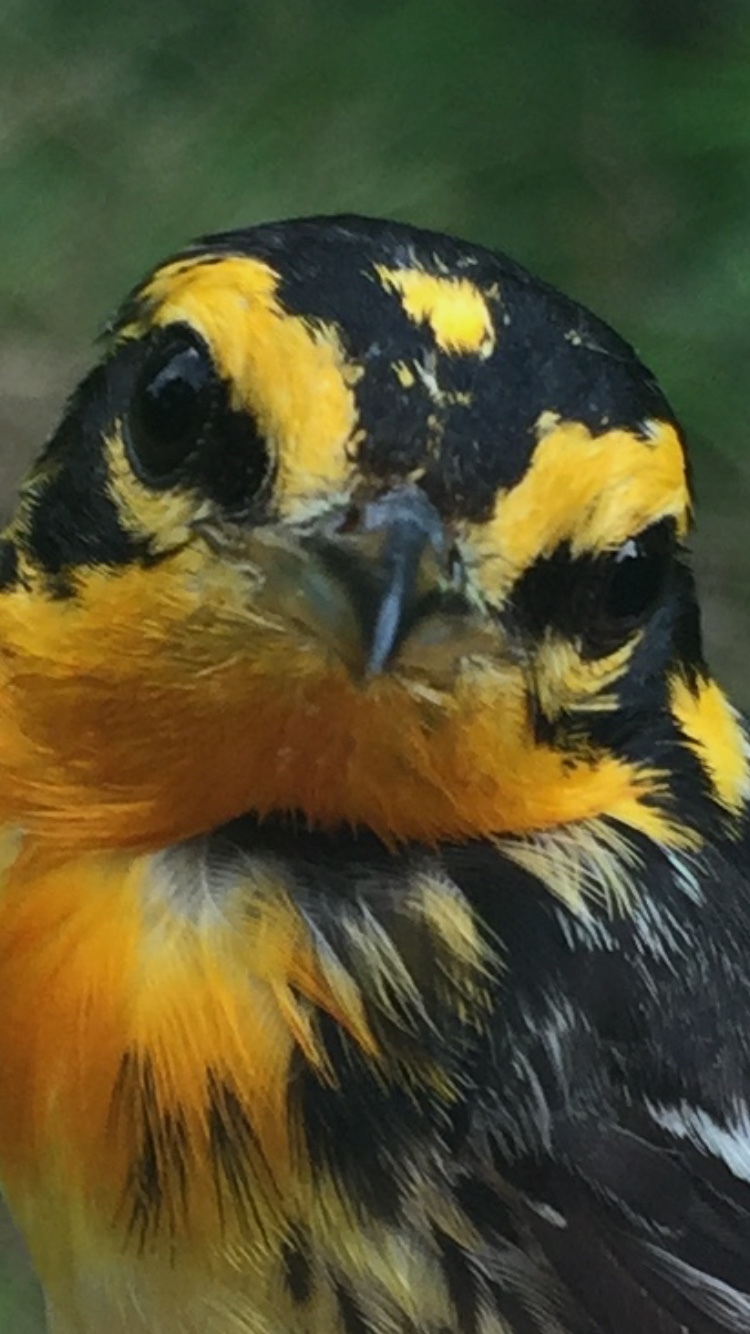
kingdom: Animalia
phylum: Chordata
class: Aves
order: Passeriformes
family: Parulidae
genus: Setophaga
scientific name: Setophaga fusca
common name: Blackburnian warbler
